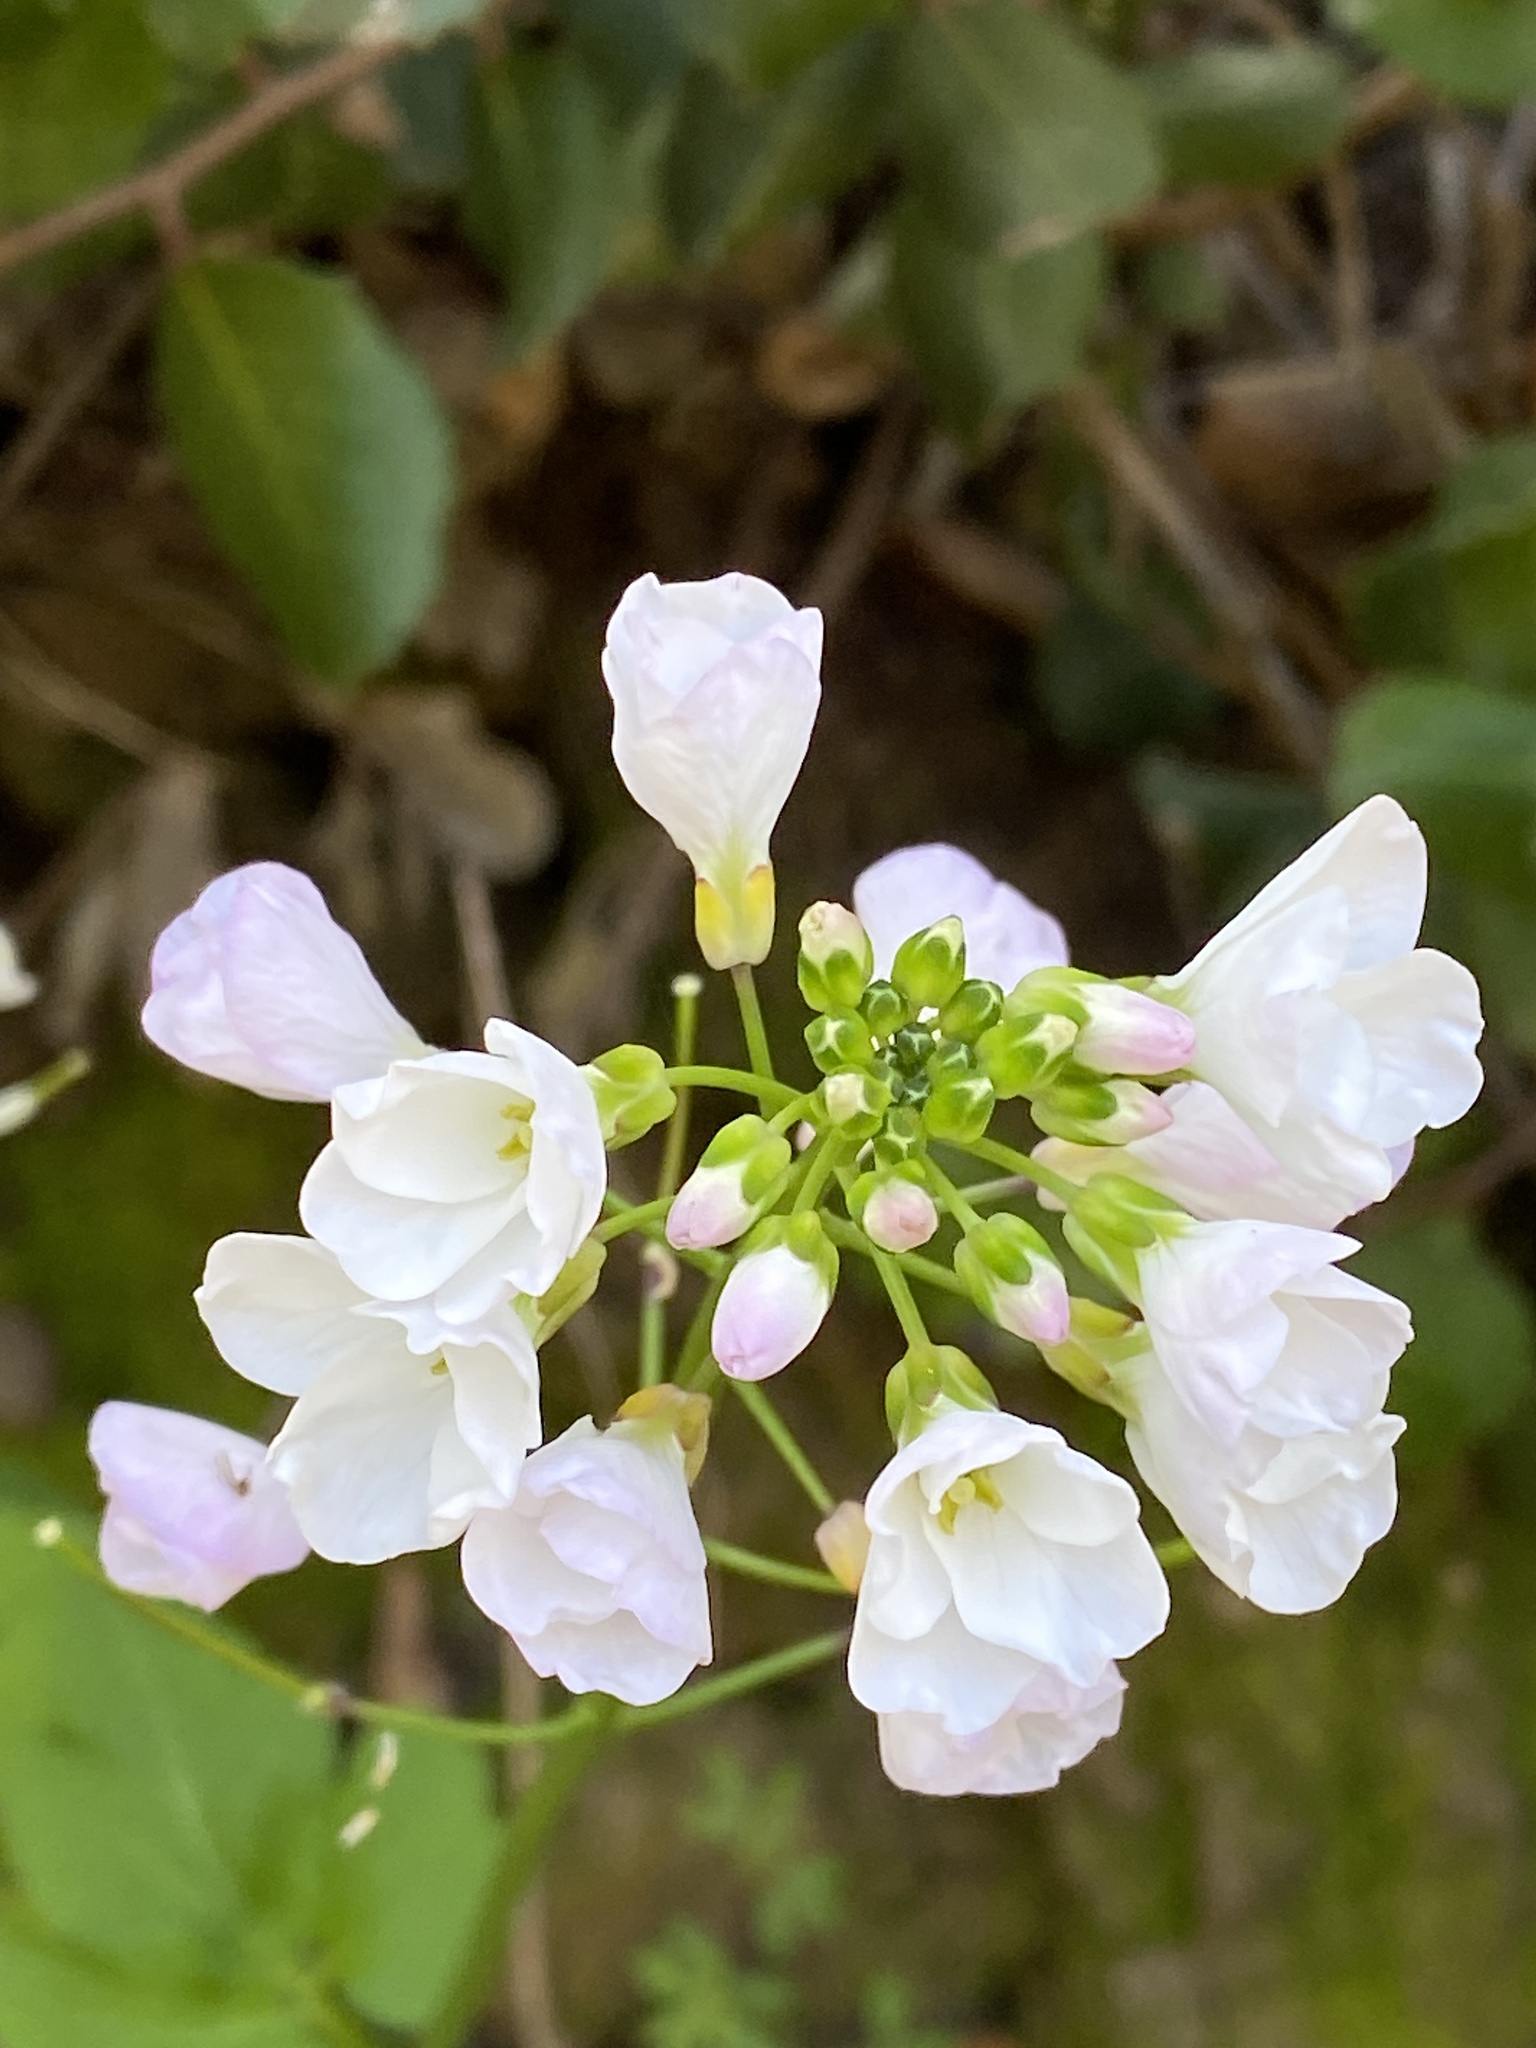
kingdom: Plantae
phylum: Tracheophyta
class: Magnoliopsida
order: Brassicales
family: Brassicaceae
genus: Cardamine
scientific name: Cardamine californica
